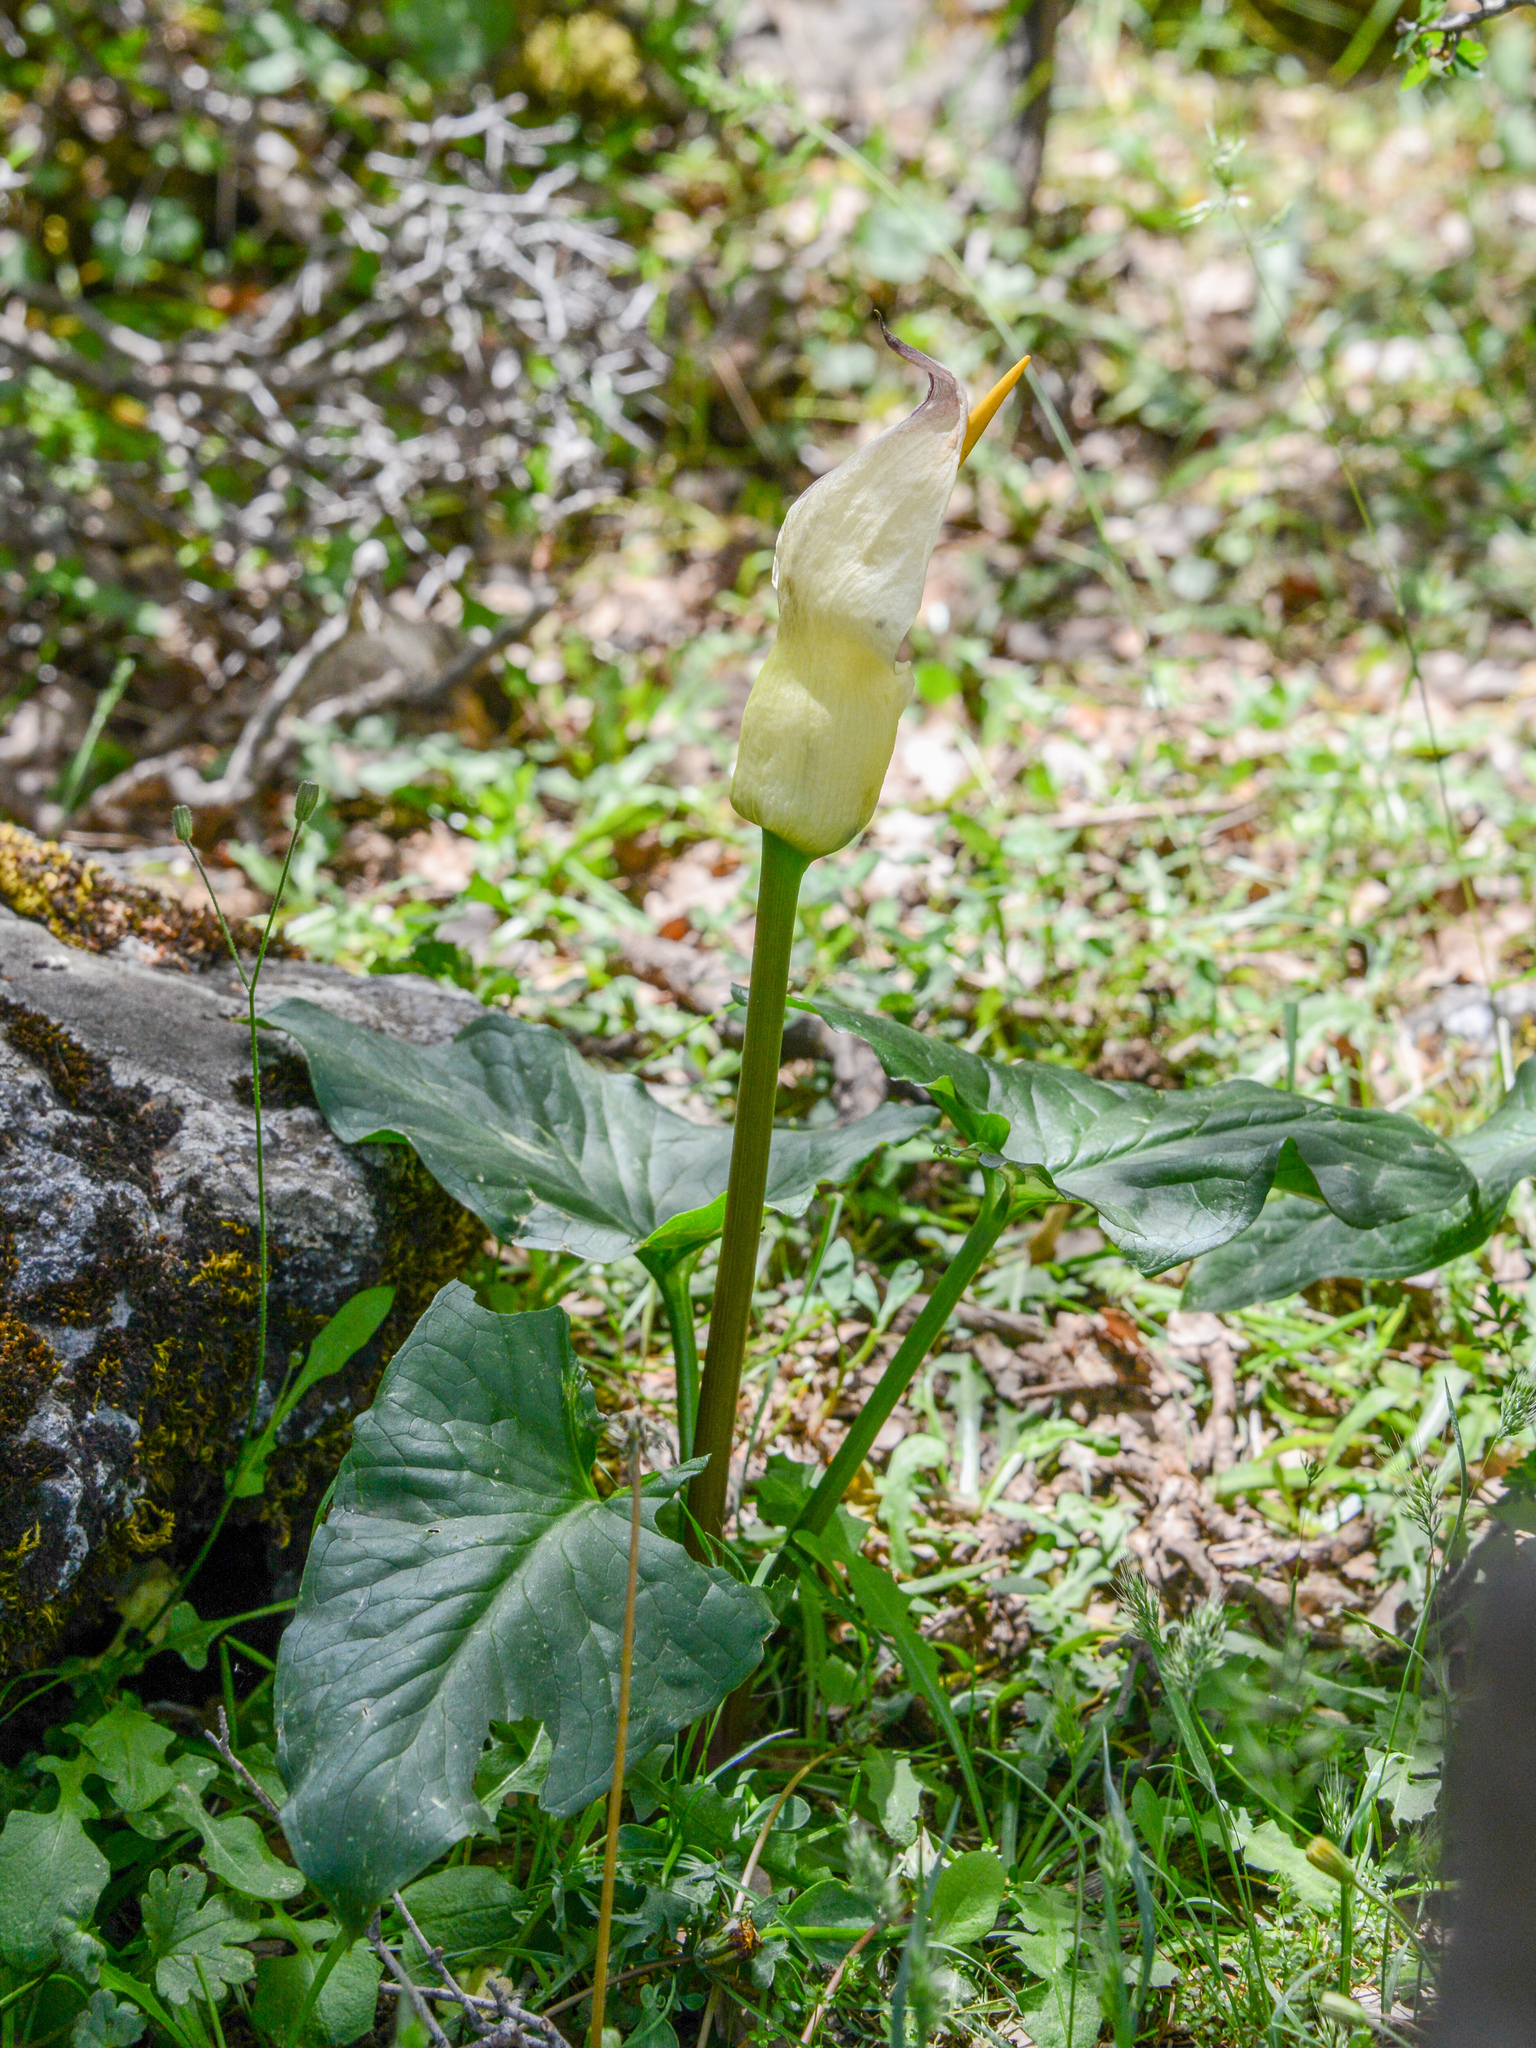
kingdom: Plantae
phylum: Tracheophyta
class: Liliopsida
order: Alismatales
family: Araceae
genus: Arum
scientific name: Arum idaeum
